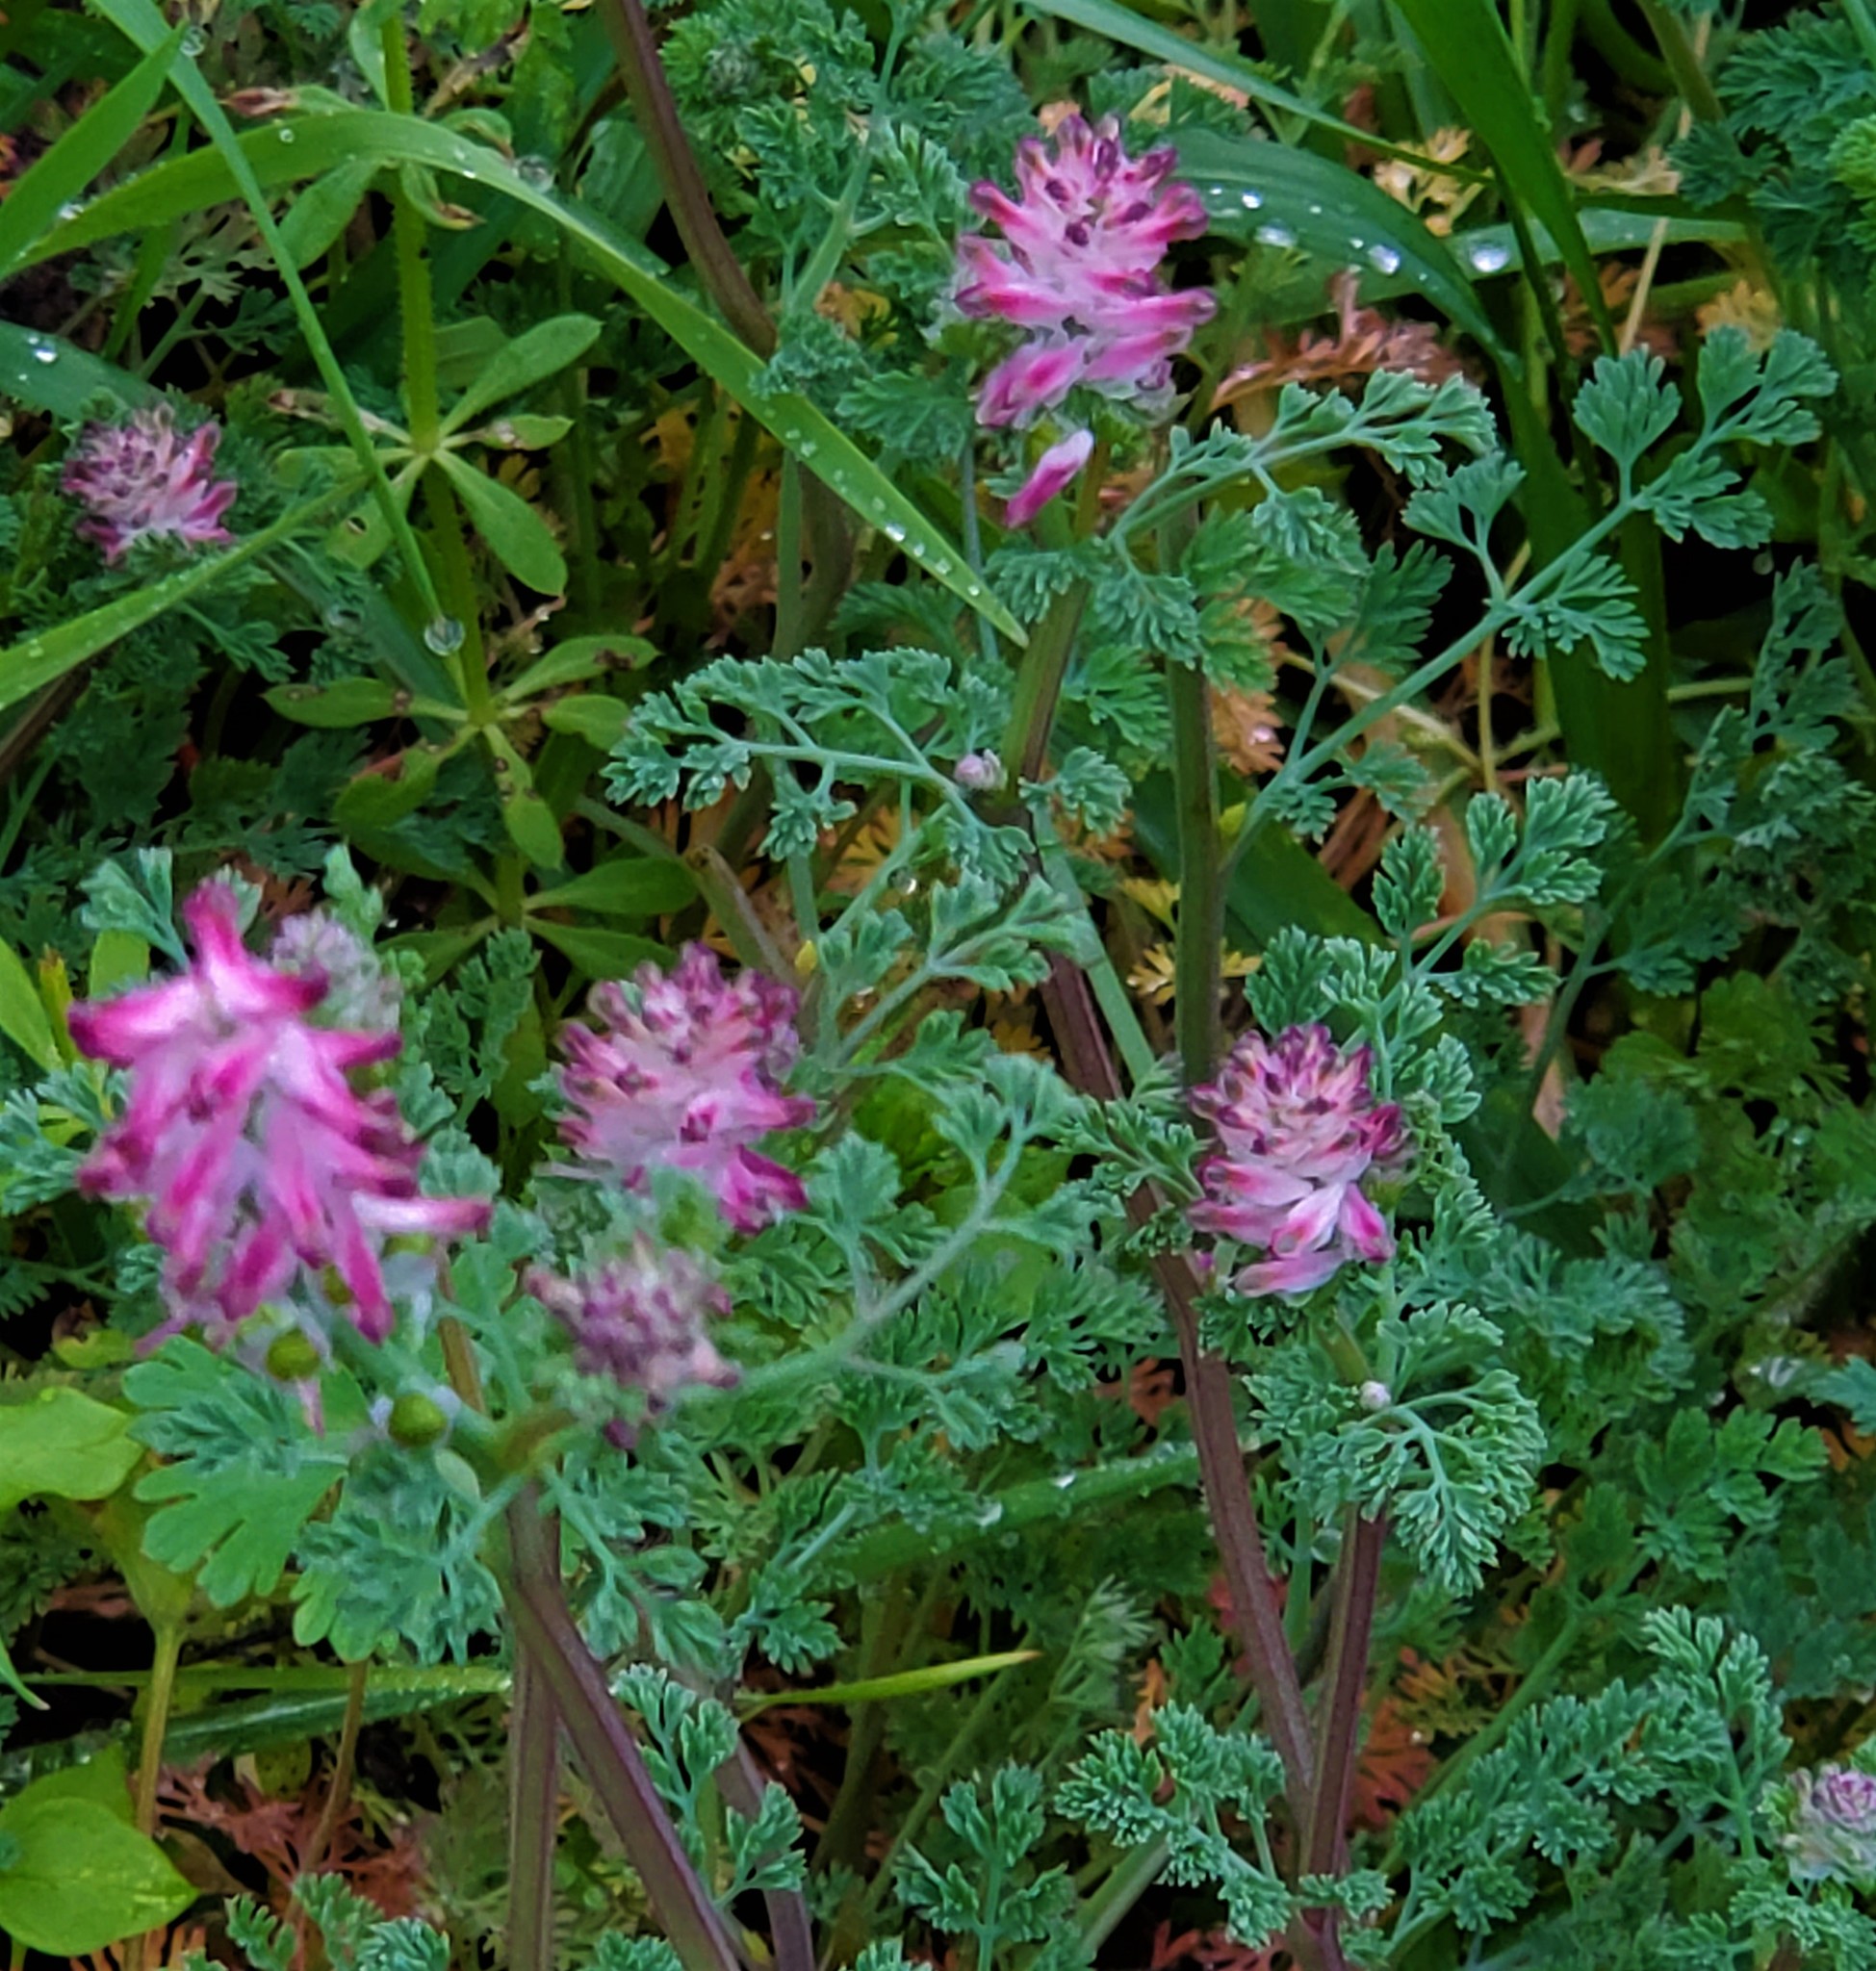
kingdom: Plantae
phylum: Tracheophyta
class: Magnoliopsida
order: Ranunculales
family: Papaveraceae
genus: Fumaria
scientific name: Fumaria densiflora
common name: Dense-flowered fumitory
